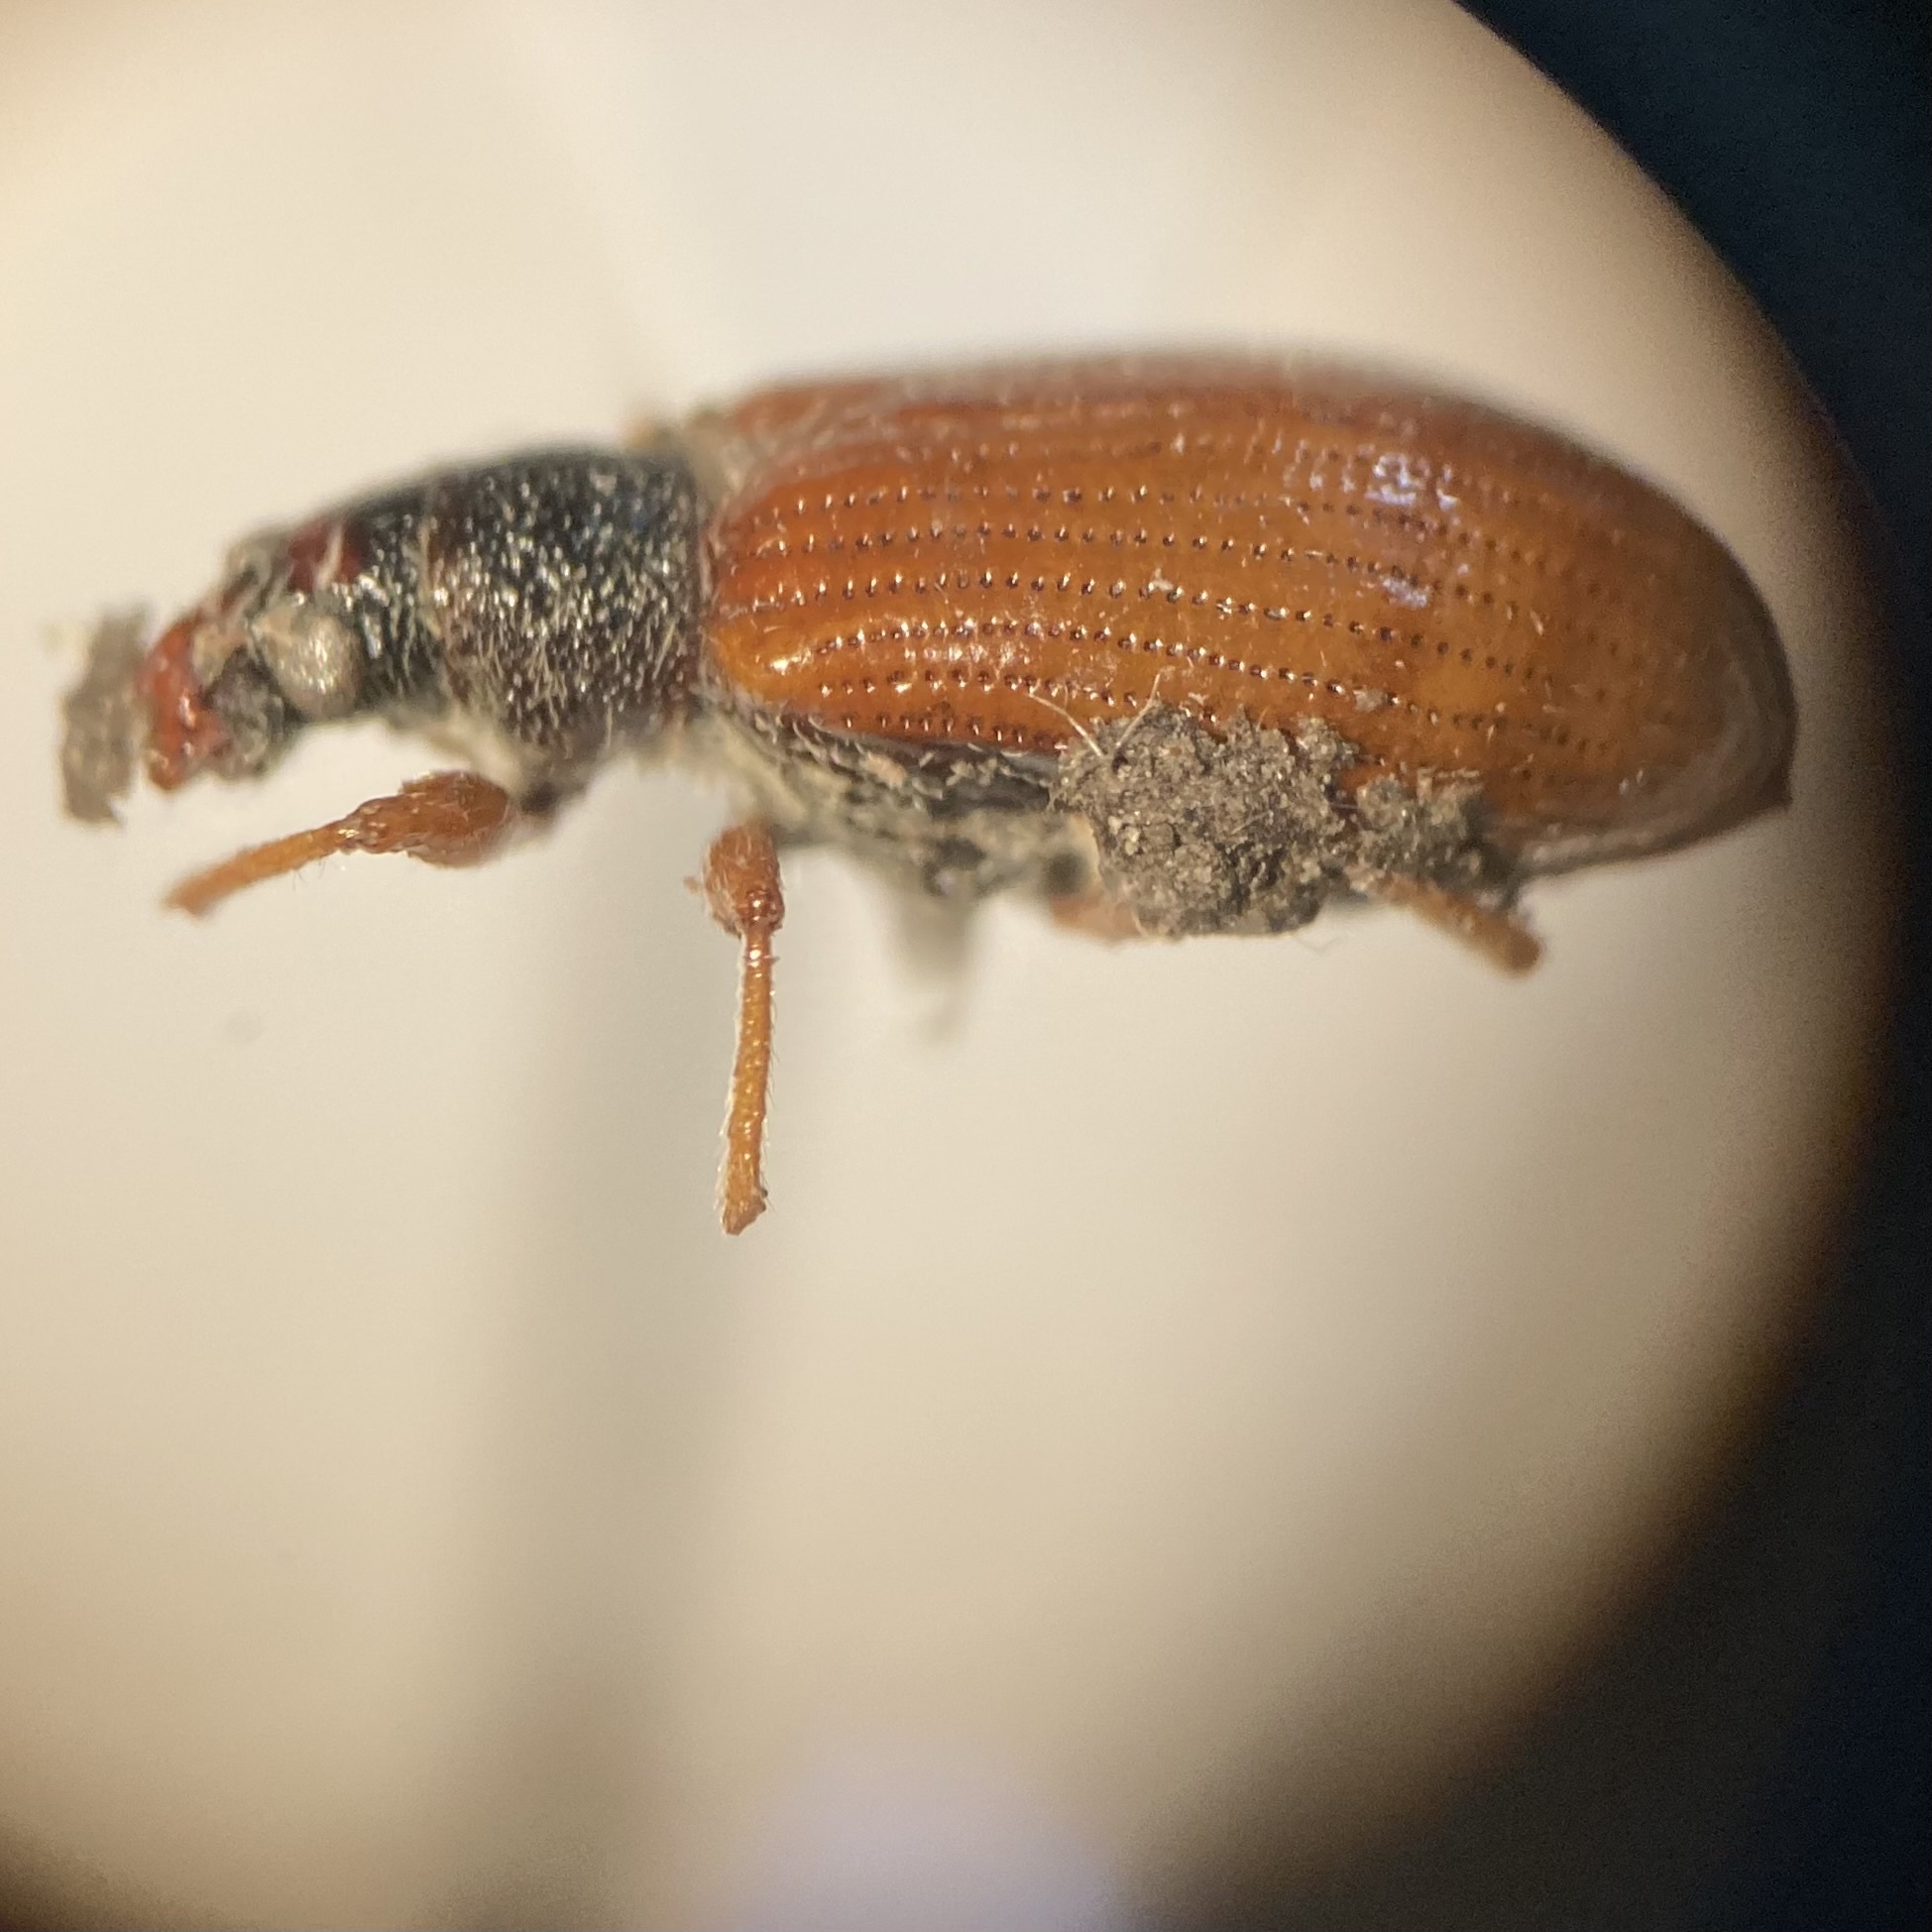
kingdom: Animalia
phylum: Arthropoda
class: Insecta
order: Coleoptera
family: Curculionidae
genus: Phyllobius
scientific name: Phyllobius oblongus
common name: Brown leaf weevil
